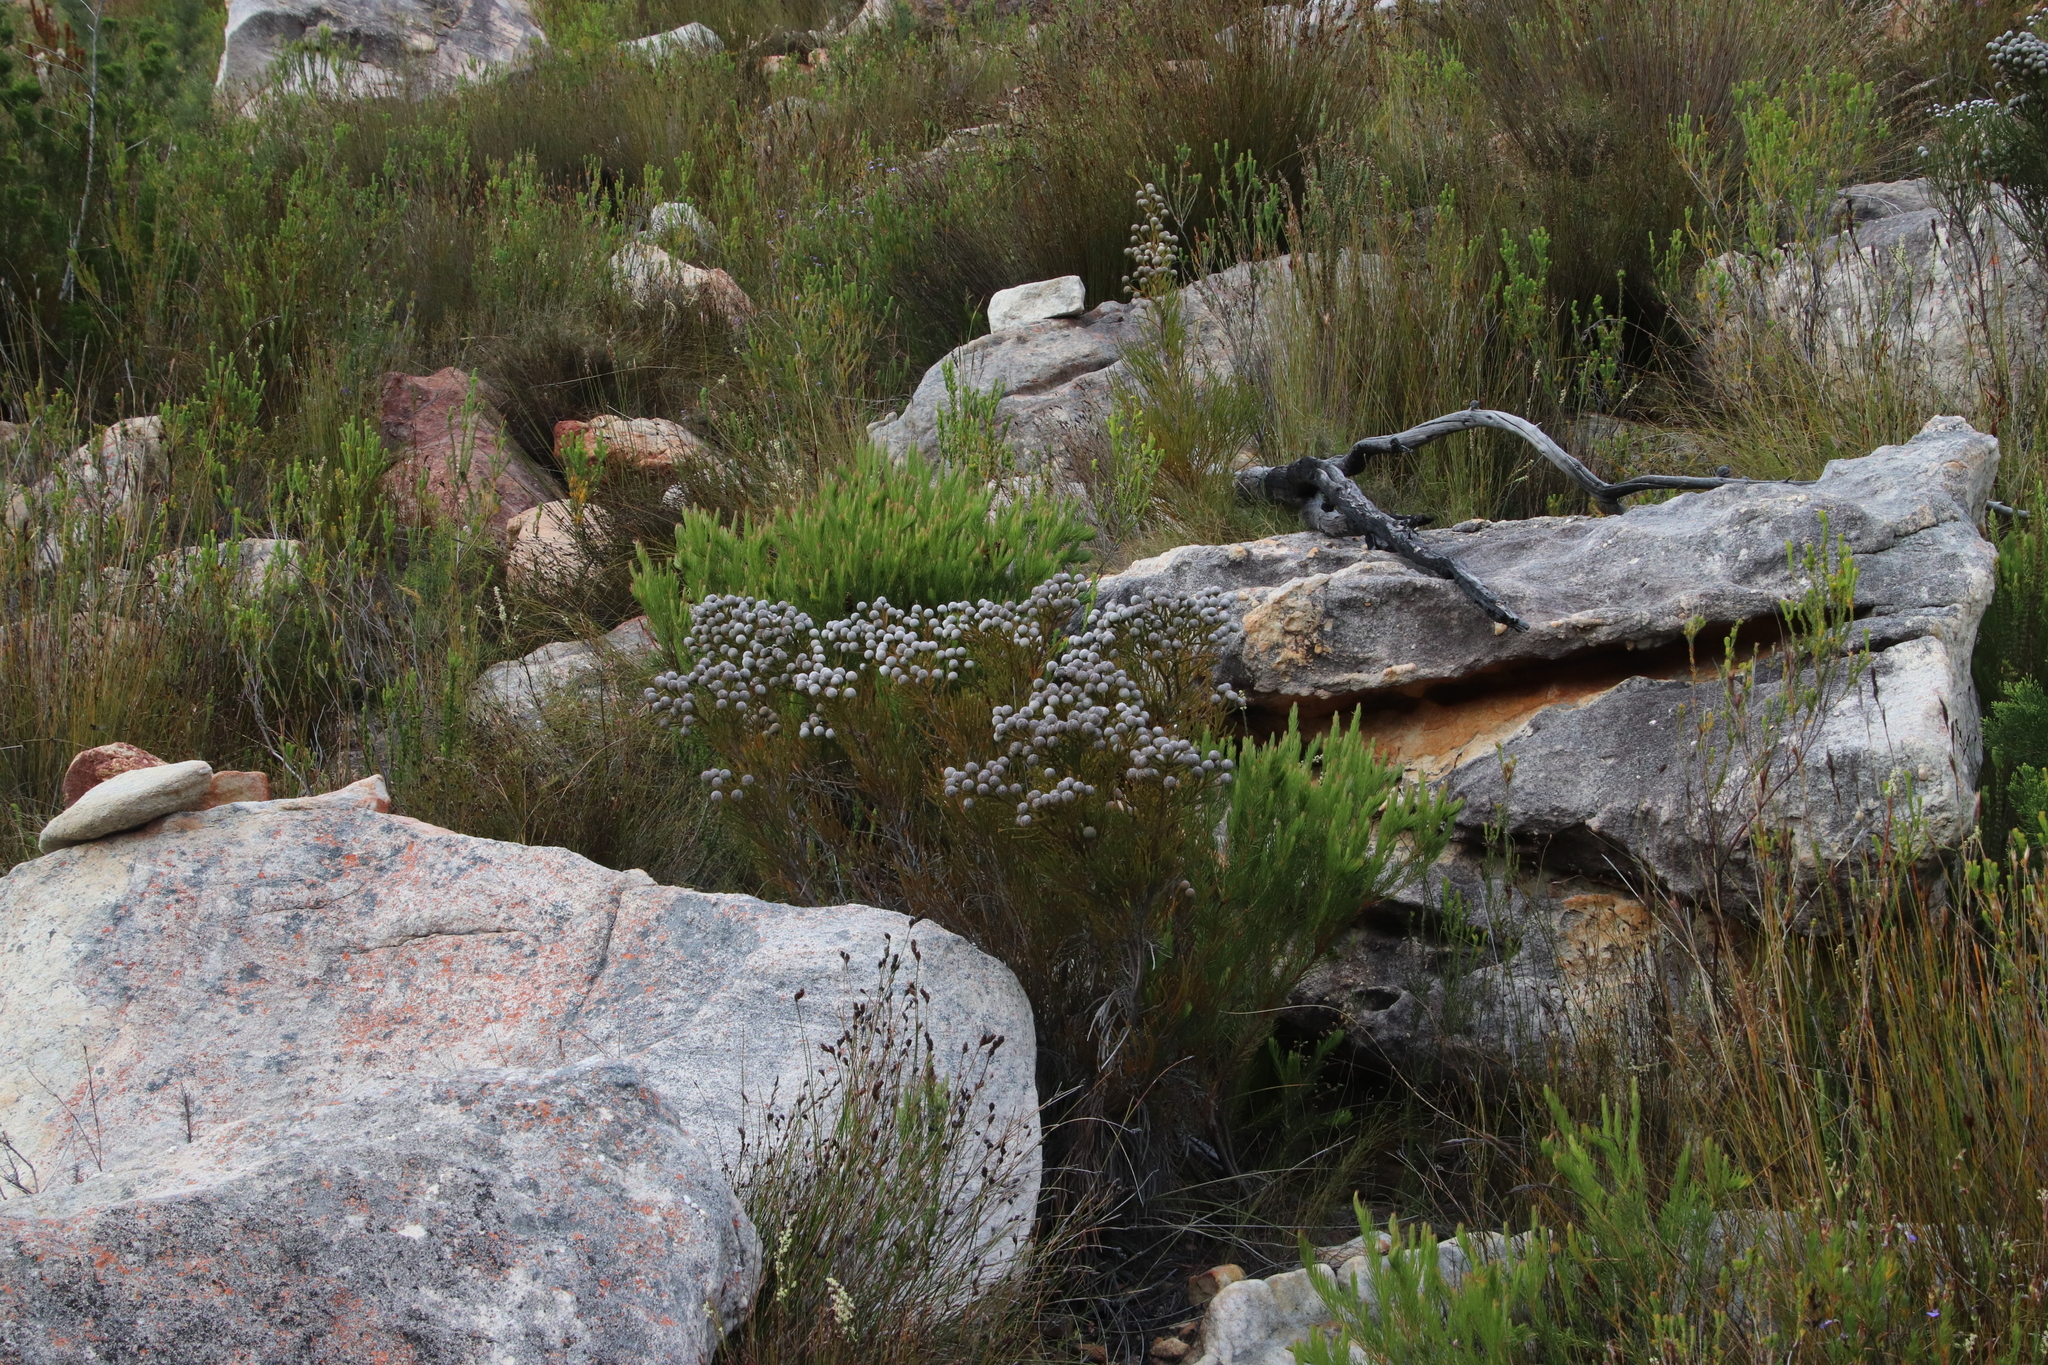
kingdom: Plantae
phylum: Tracheophyta
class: Magnoliopsida
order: Bruniales
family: Bruniaceae
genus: Brunia
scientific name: Brunia noduliflora
